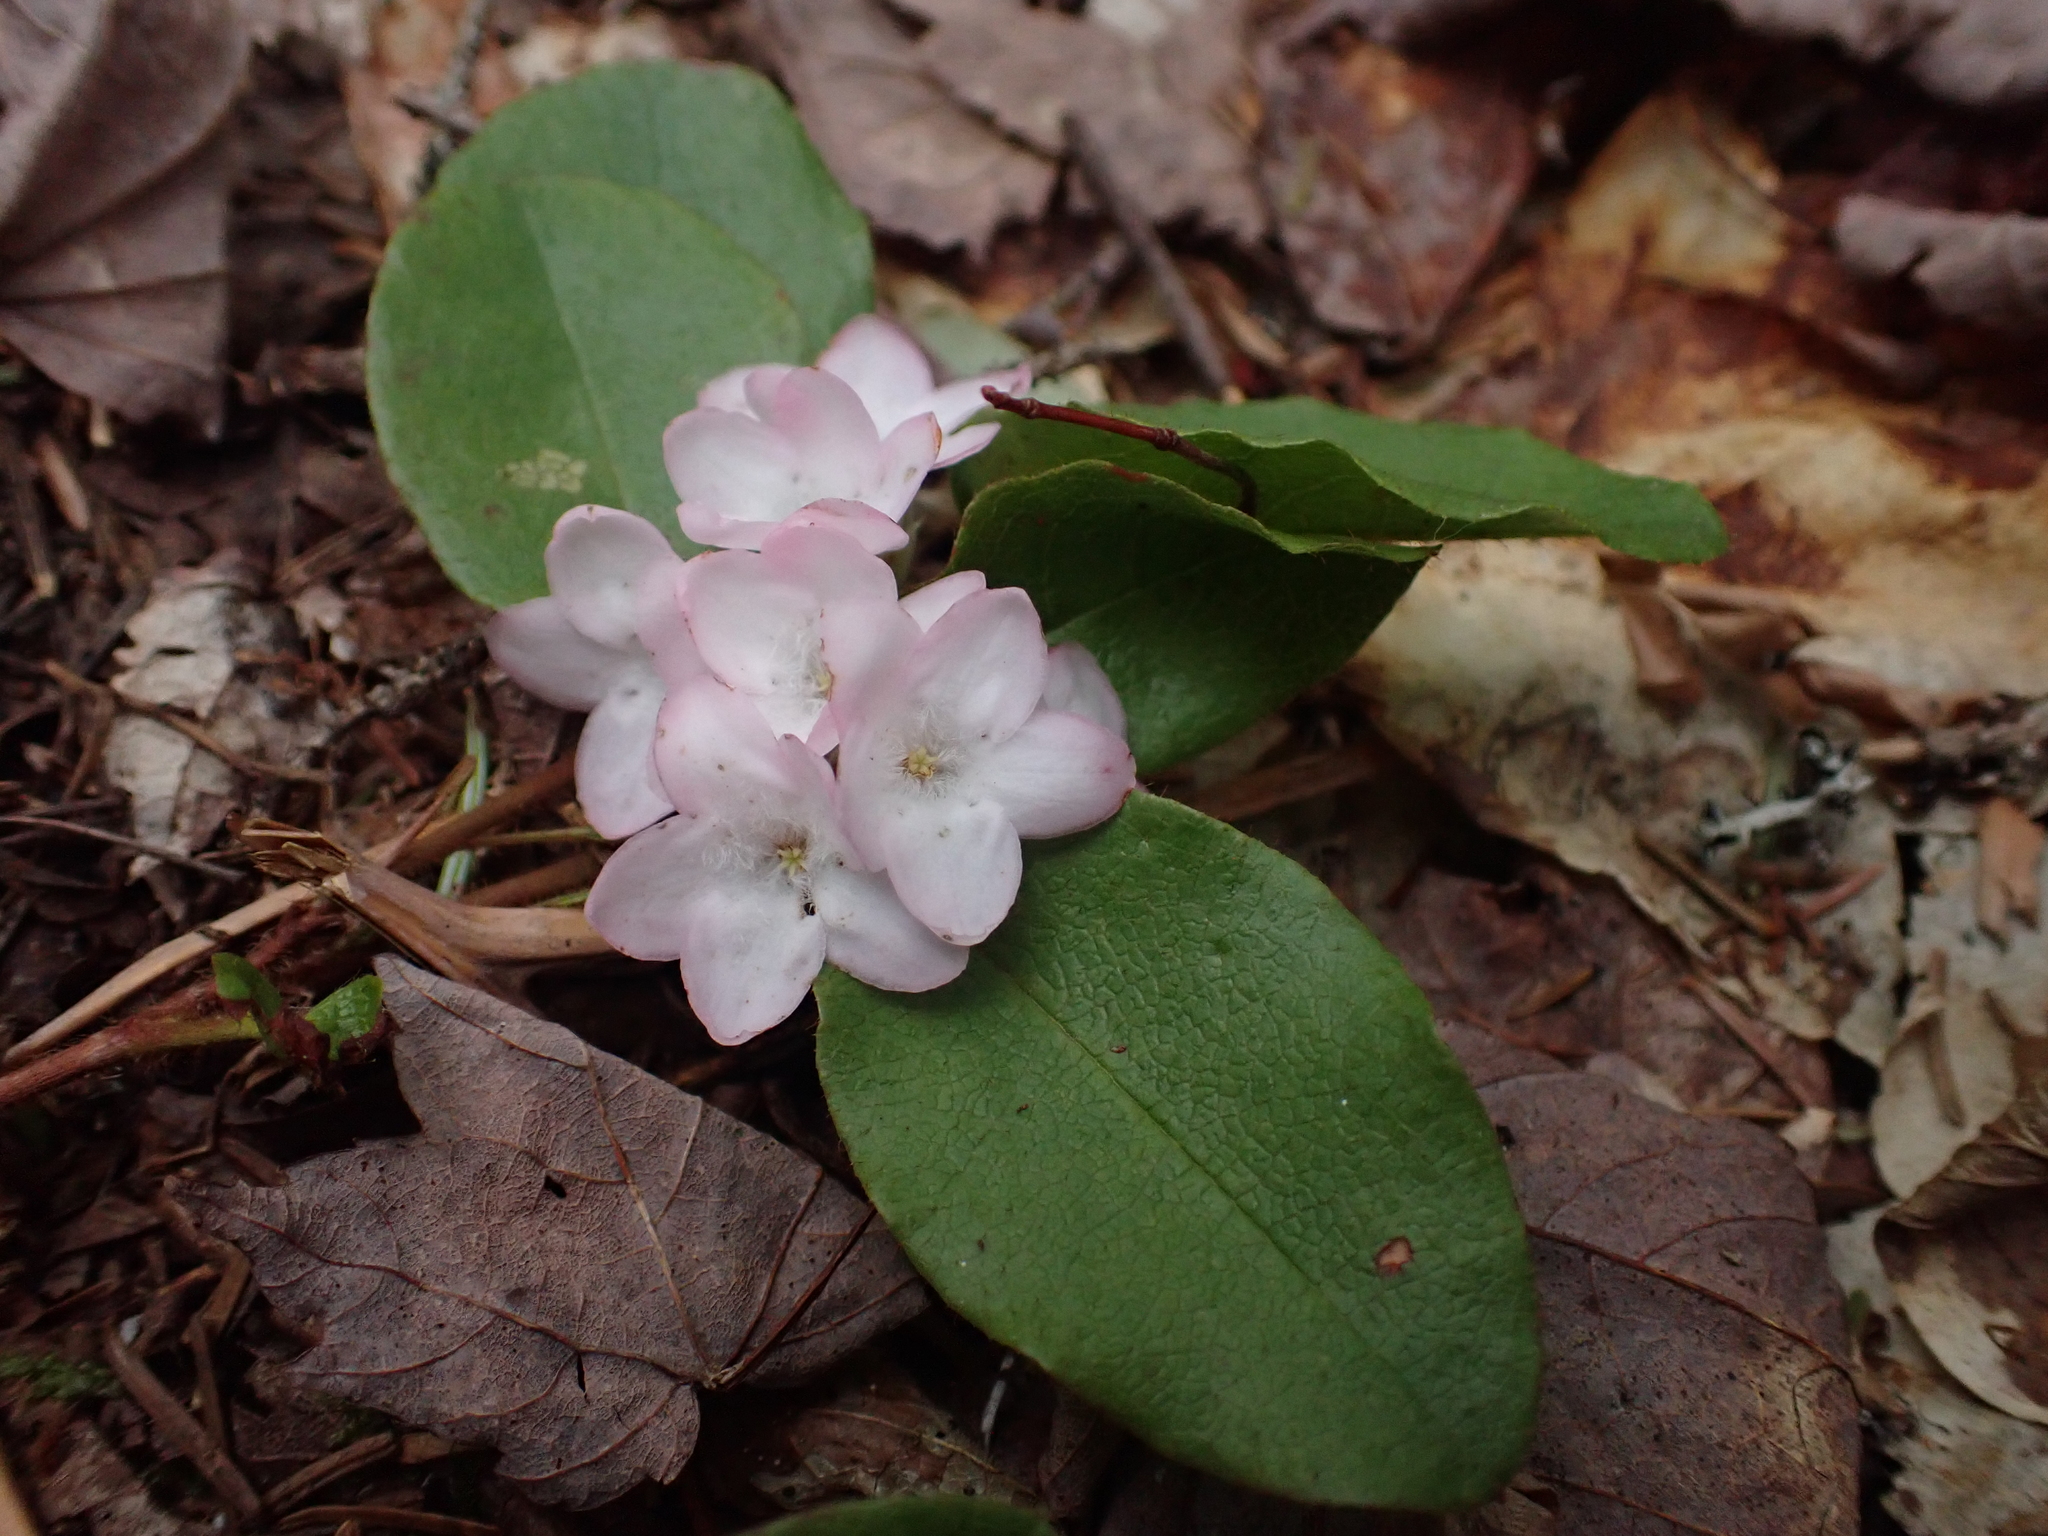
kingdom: Plantae
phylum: Tracheophyta
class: Magnoliopsida
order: Ericales
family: Ericaceae
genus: Epigaea
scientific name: Epigaea repens
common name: Gravelroot
